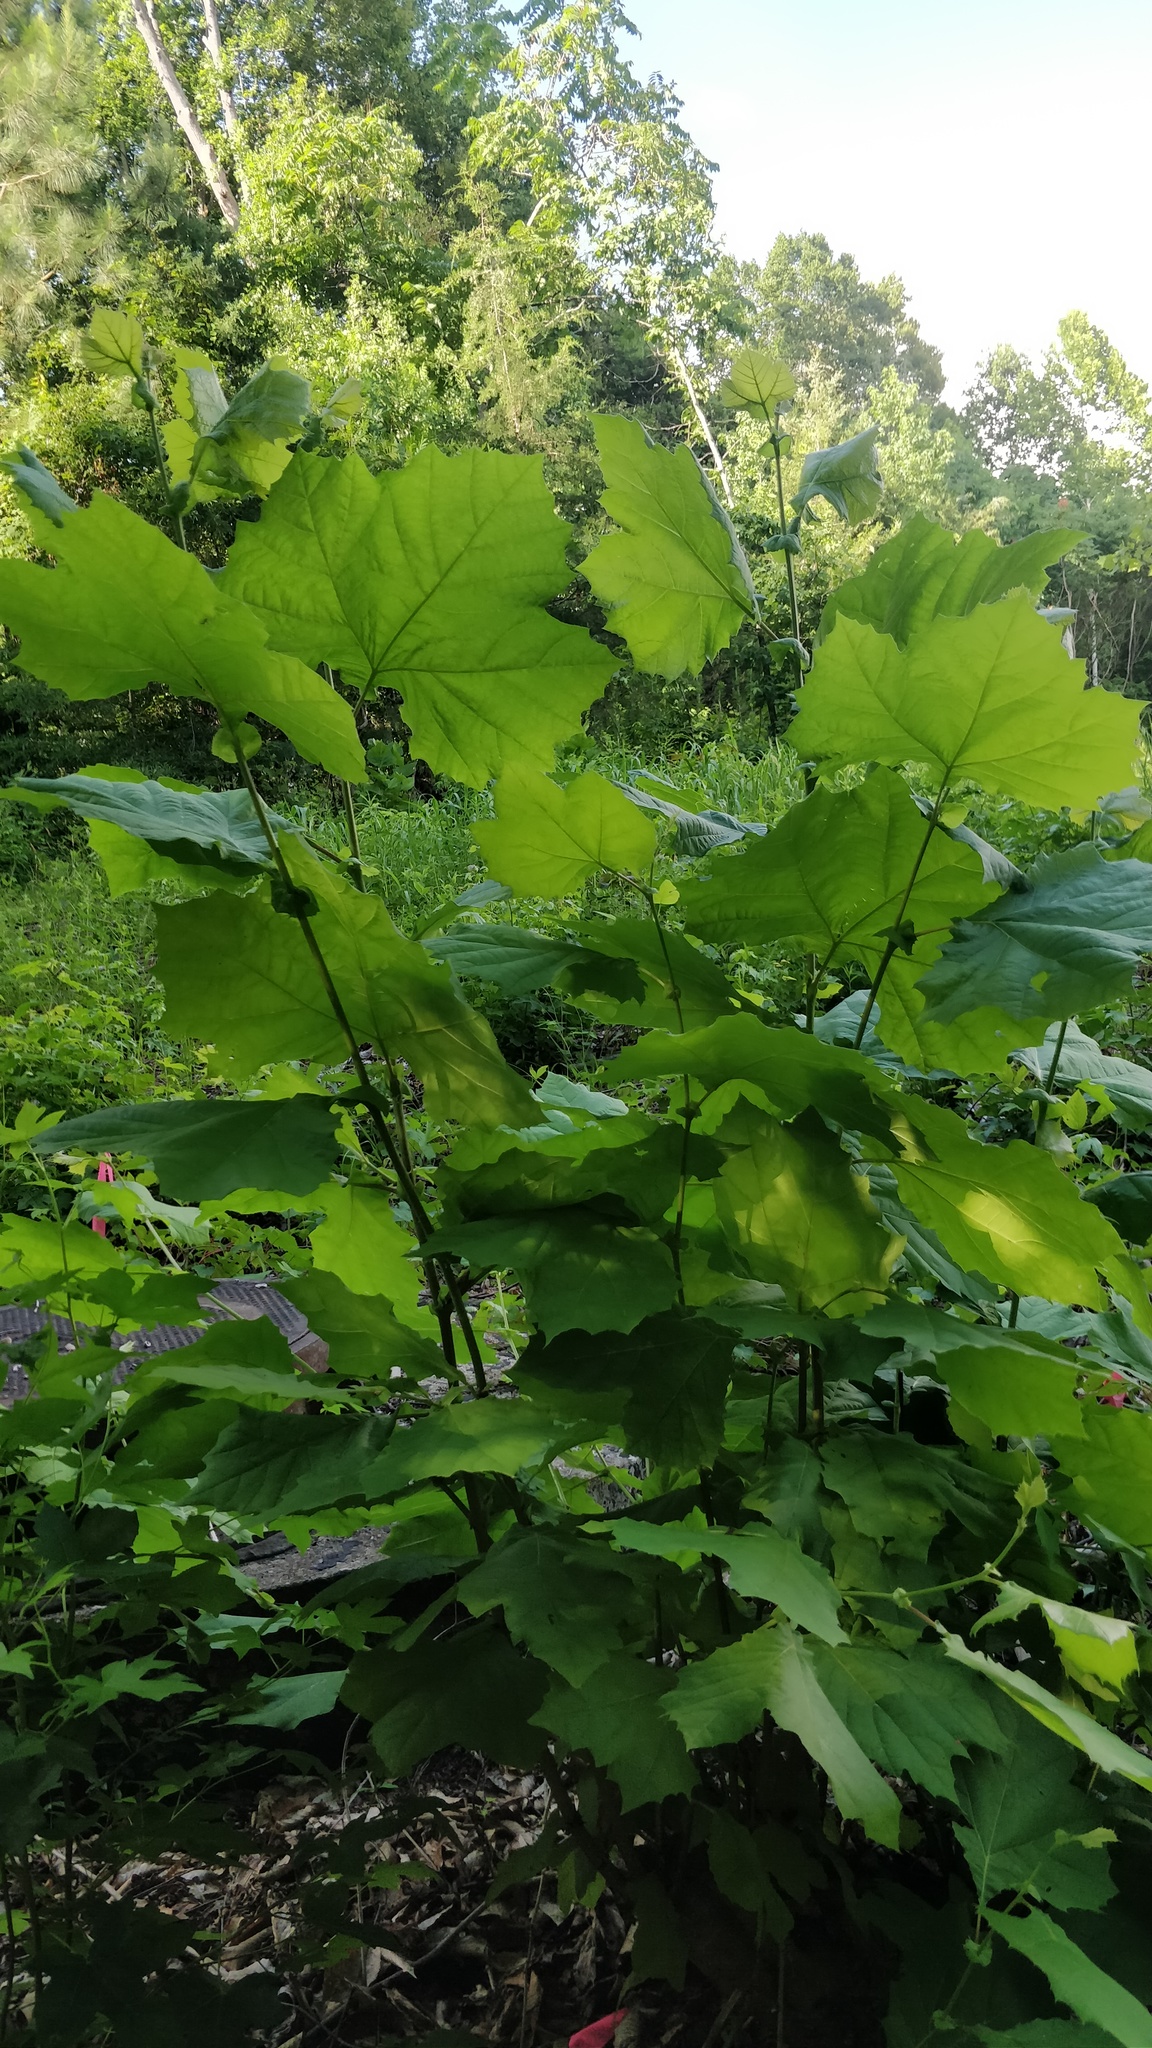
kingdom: Plantae
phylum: Tracheophyta
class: Magnoliopsida
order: Proteales
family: Platanaceae
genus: Platanus
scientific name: Platanus occidentalis
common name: American sycamore
